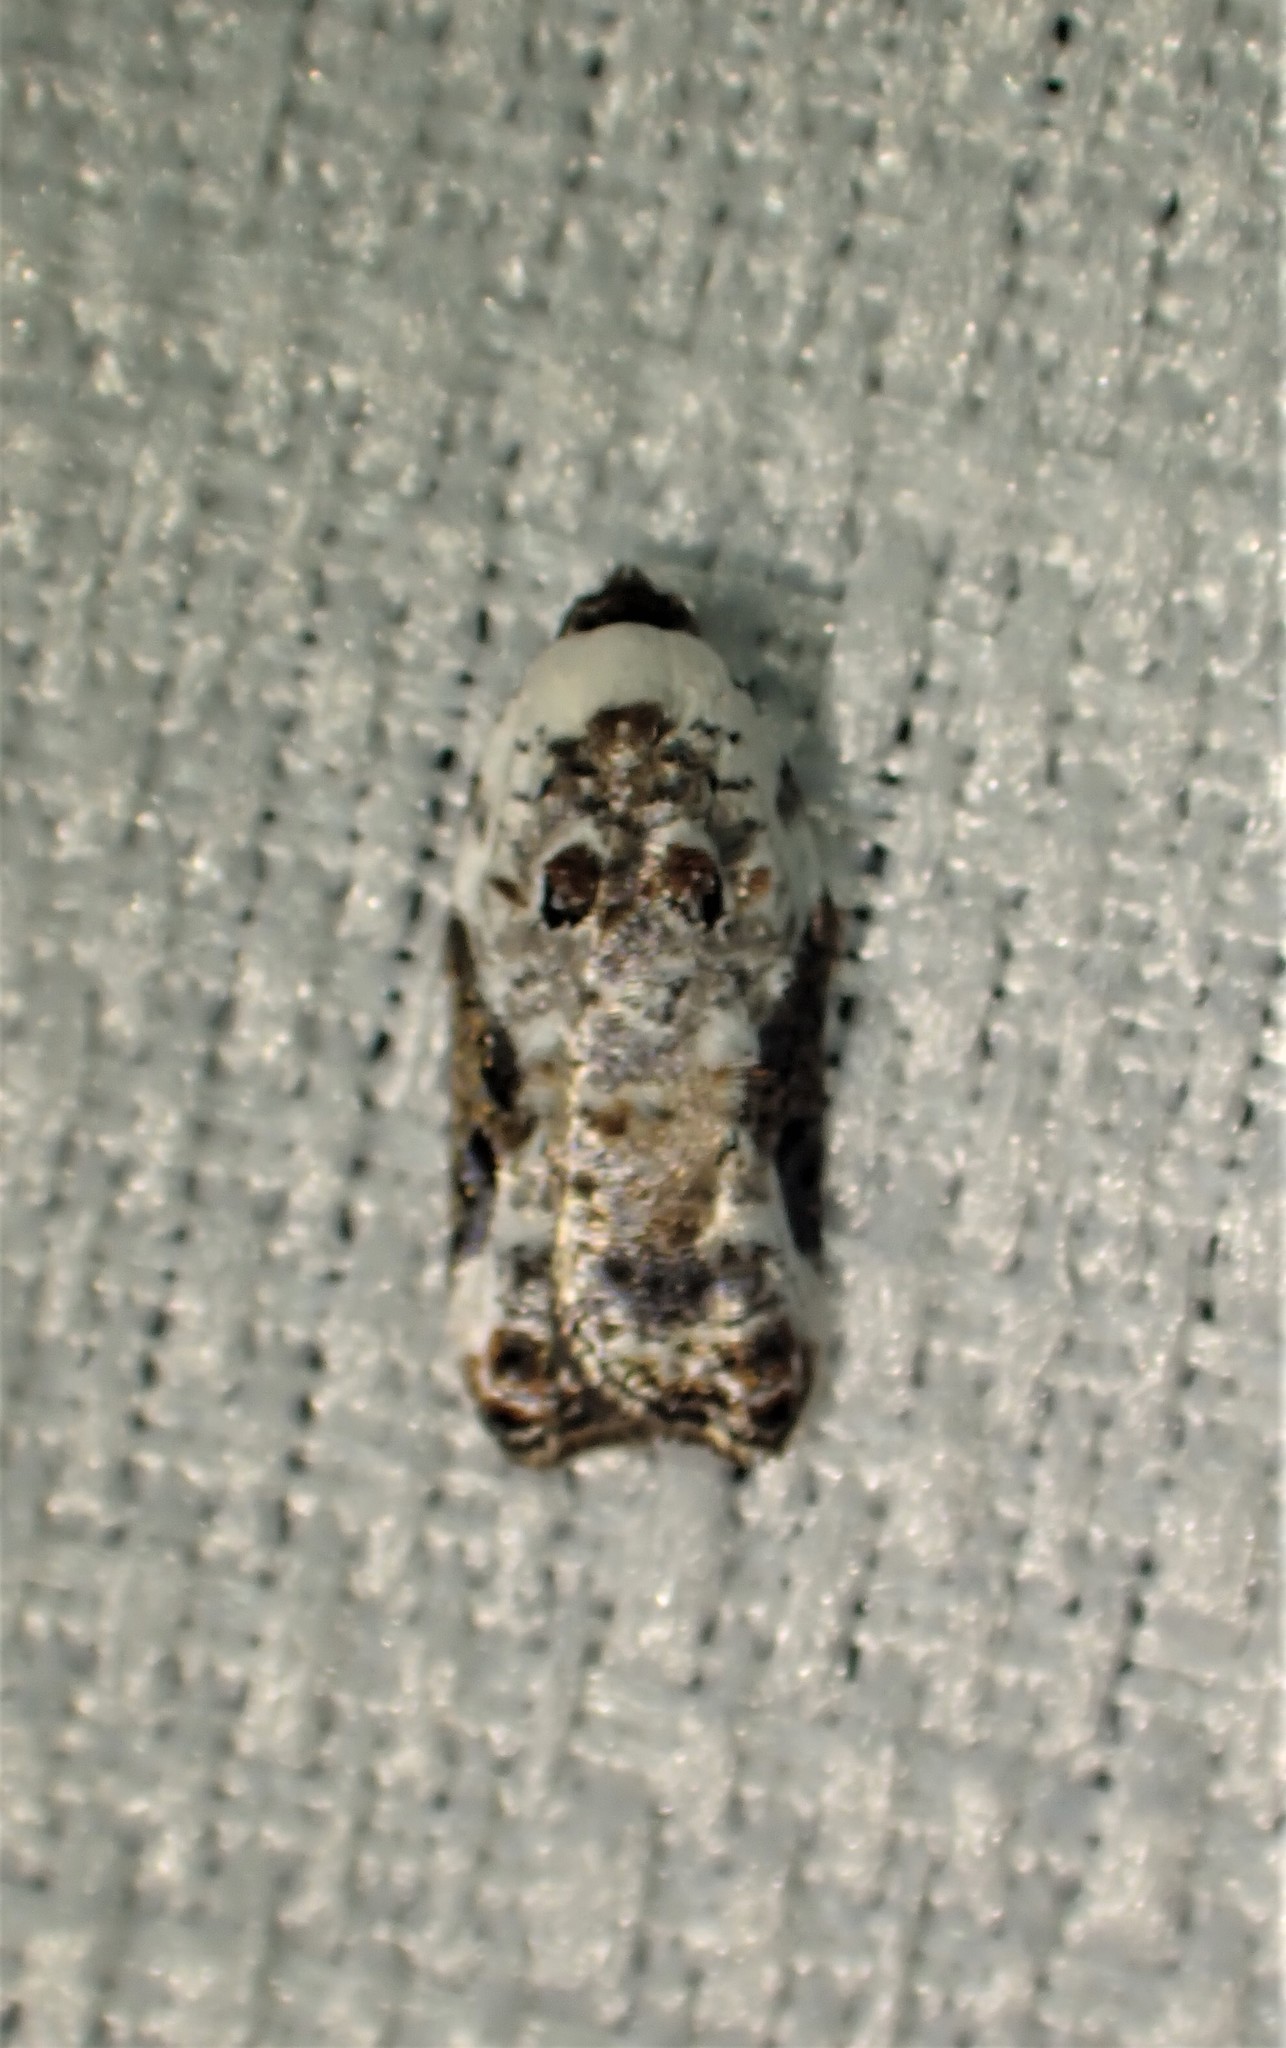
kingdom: Animalia
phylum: Arthropoda
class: Insecta
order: Lepidoptera
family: Tortricidae
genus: Acleris
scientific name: Acleris nivisellana
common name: Snowy-shouldered acleris moth
